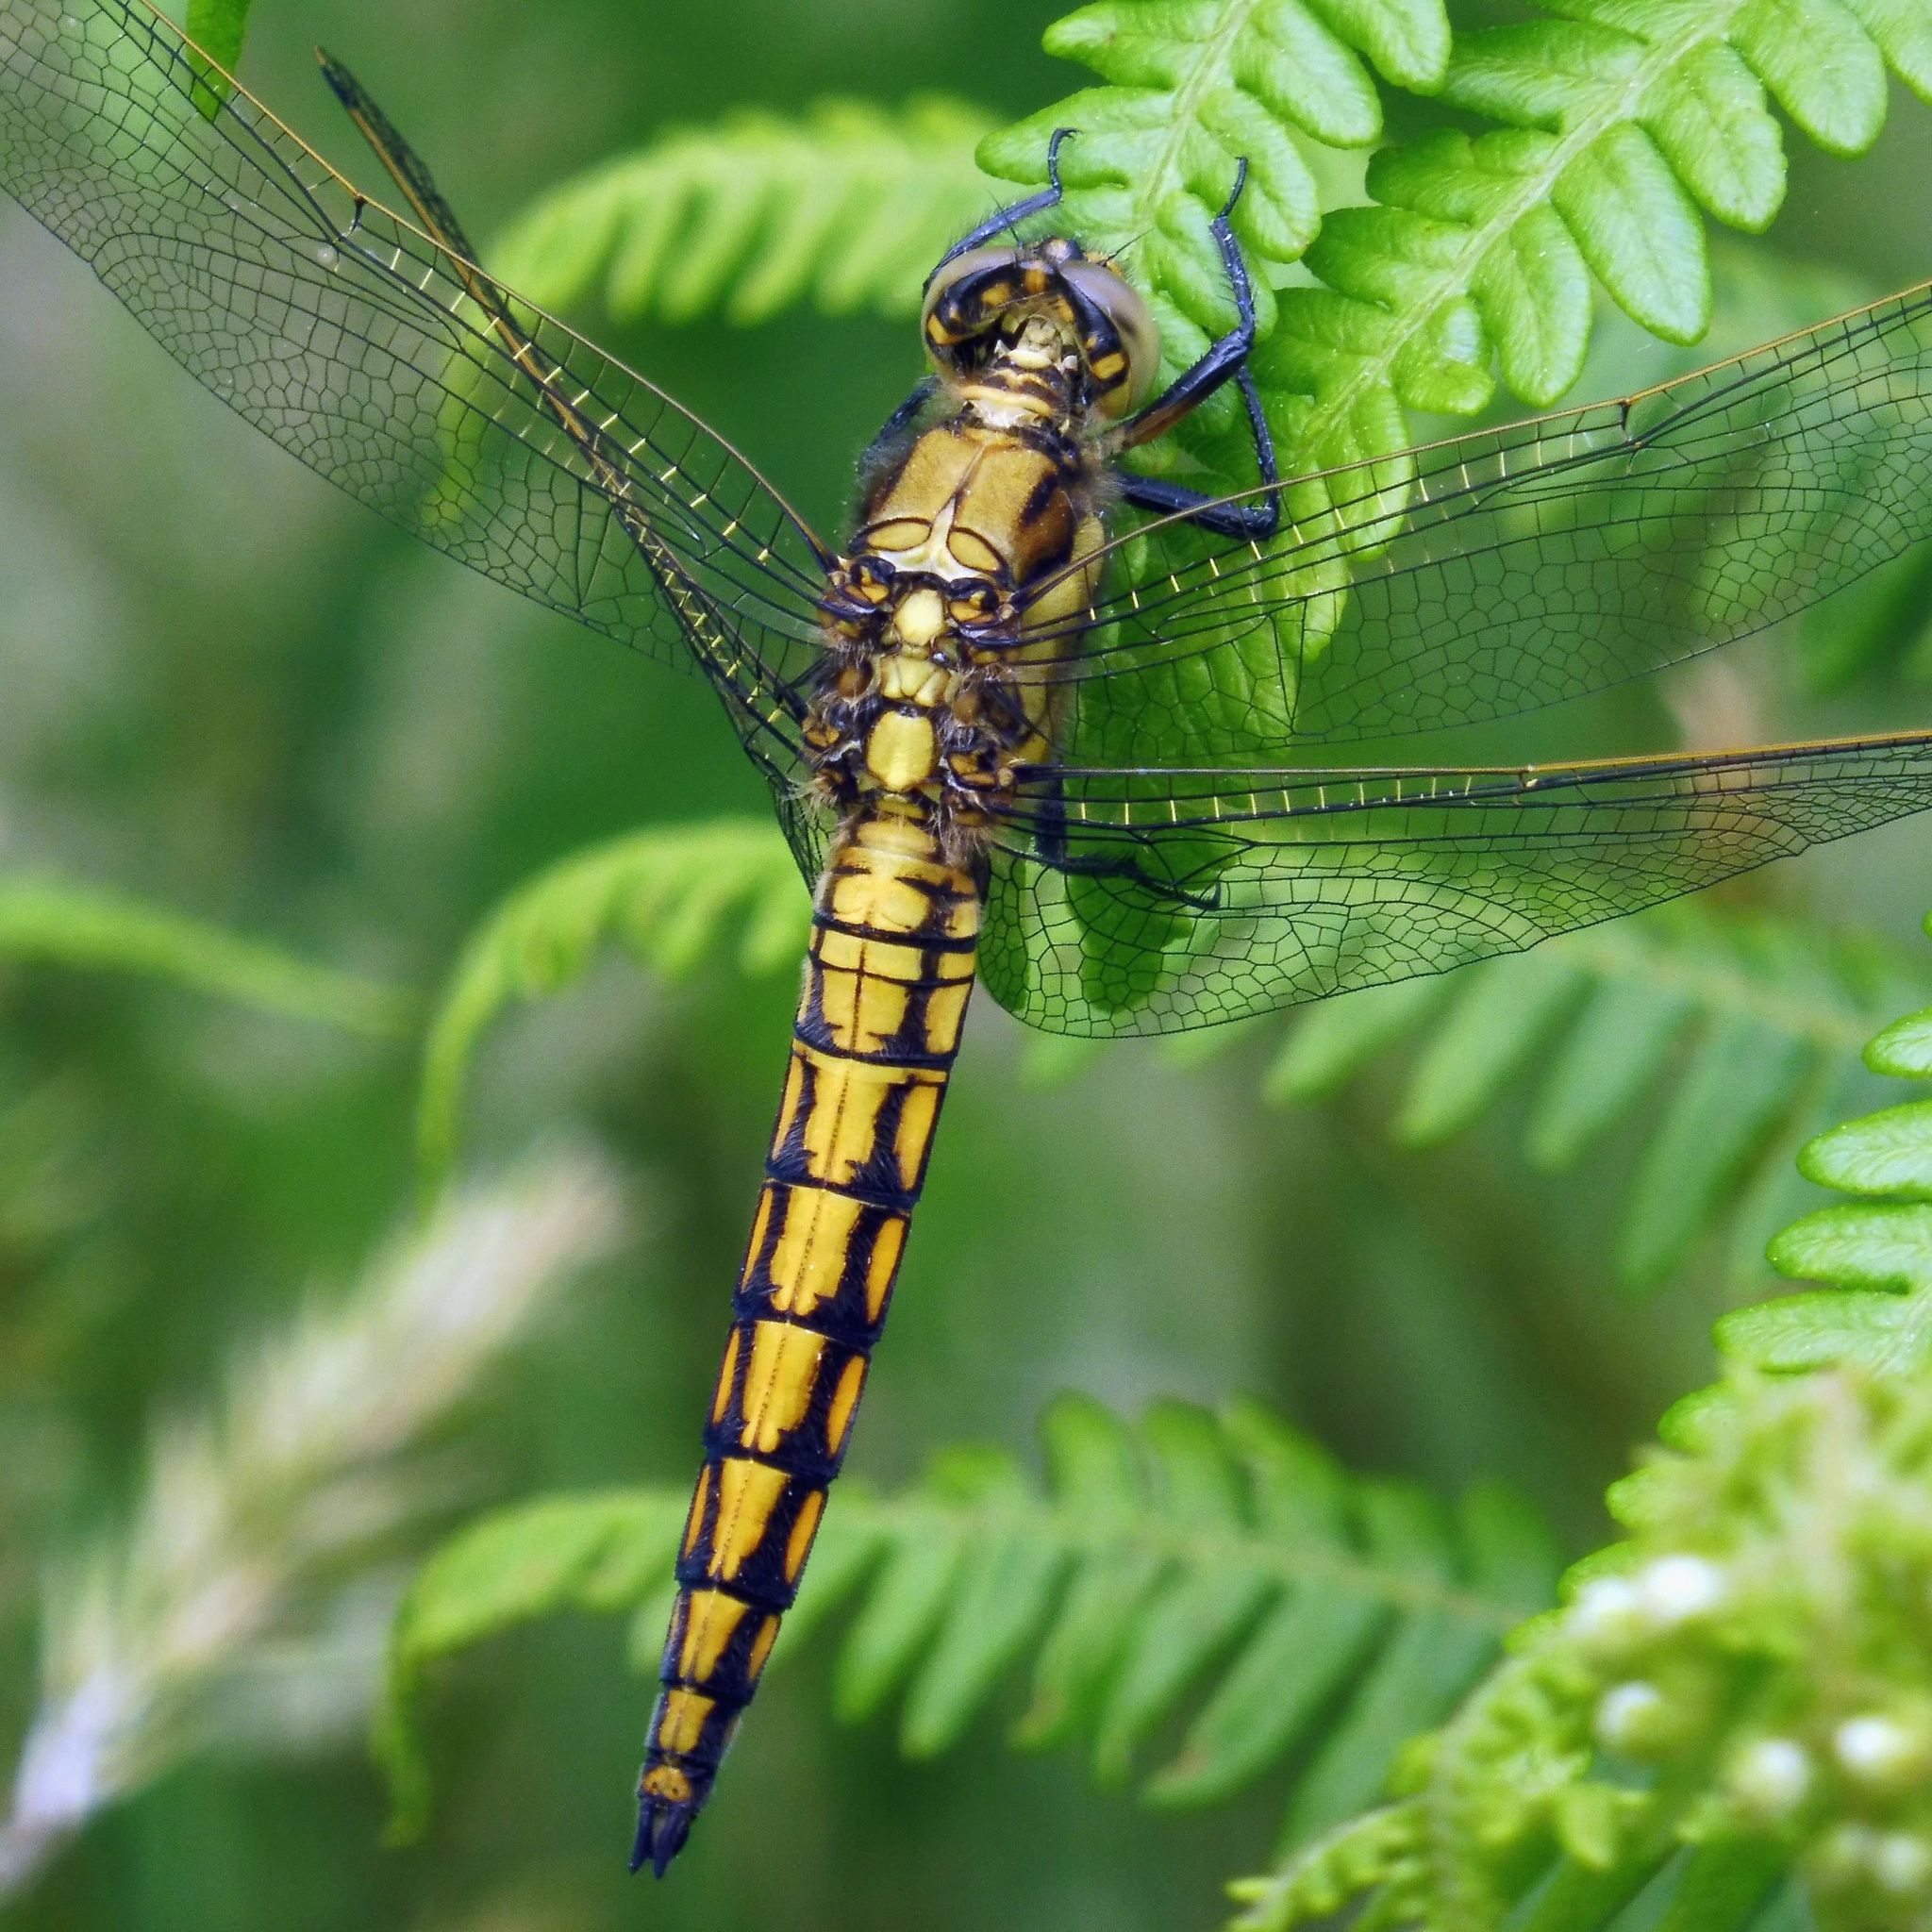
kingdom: Animalia
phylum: Arthropoda
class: Insecta
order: Odonata
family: Libellulidae
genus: Orthetrum
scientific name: Orthetrum cancellatum
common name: Black-tailed skimmer
